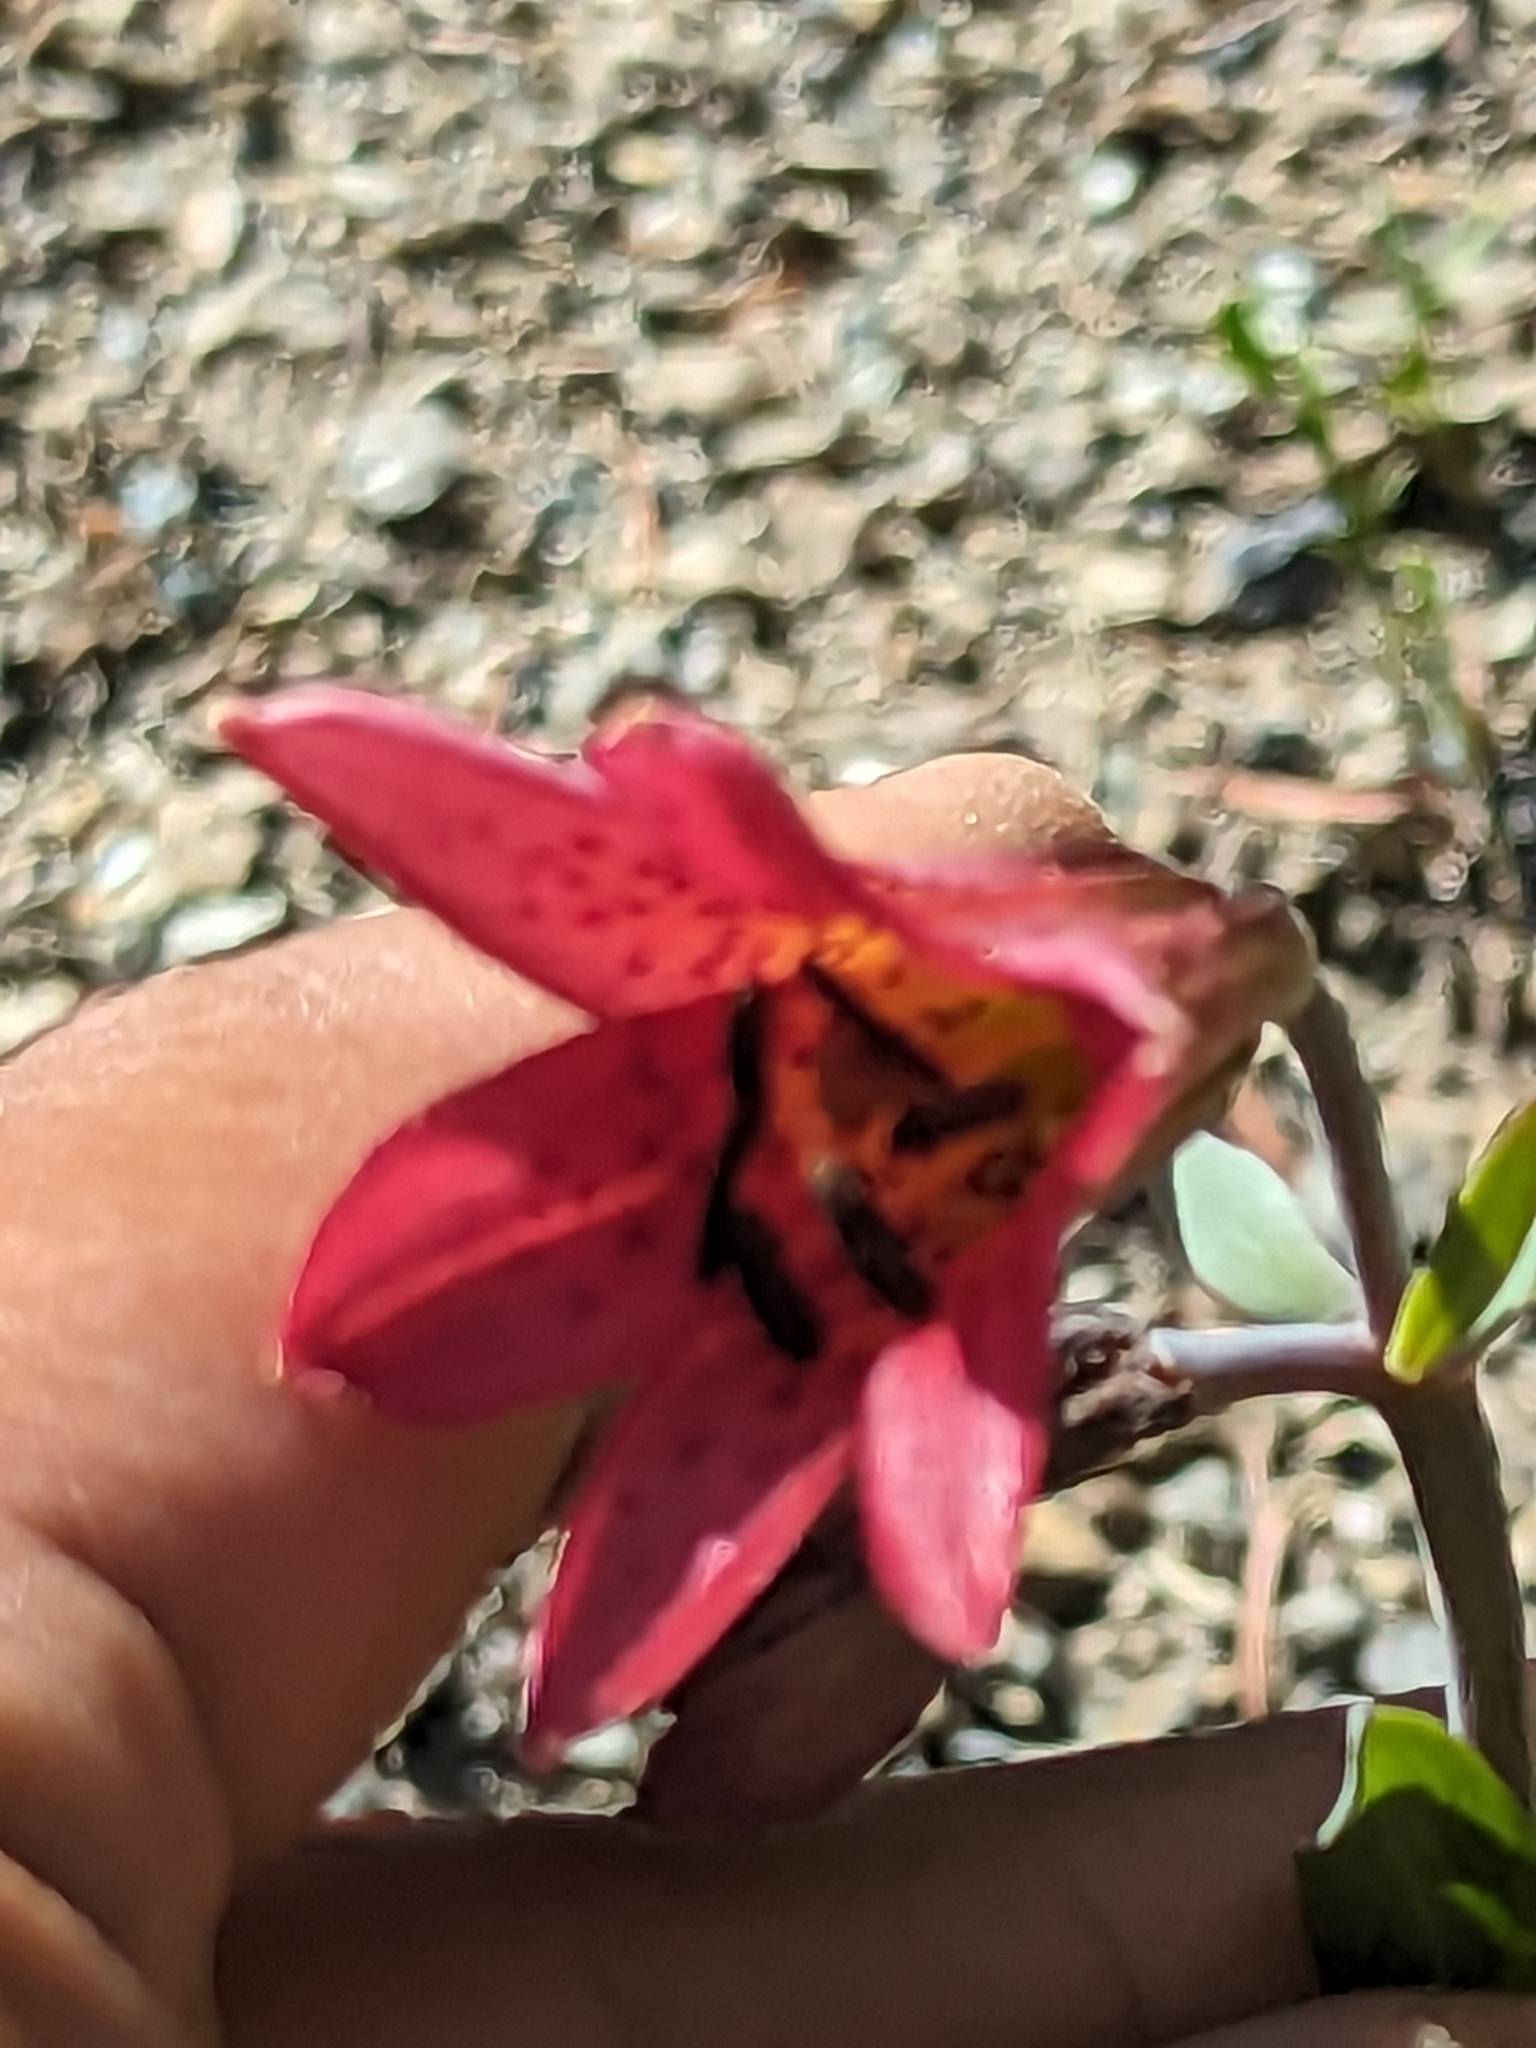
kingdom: Plantae
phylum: Tracheophyta
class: Liliopsida
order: Liliales
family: Liliaceae
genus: Lilium
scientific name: Lilium bolanderi
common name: Bolander's lily
